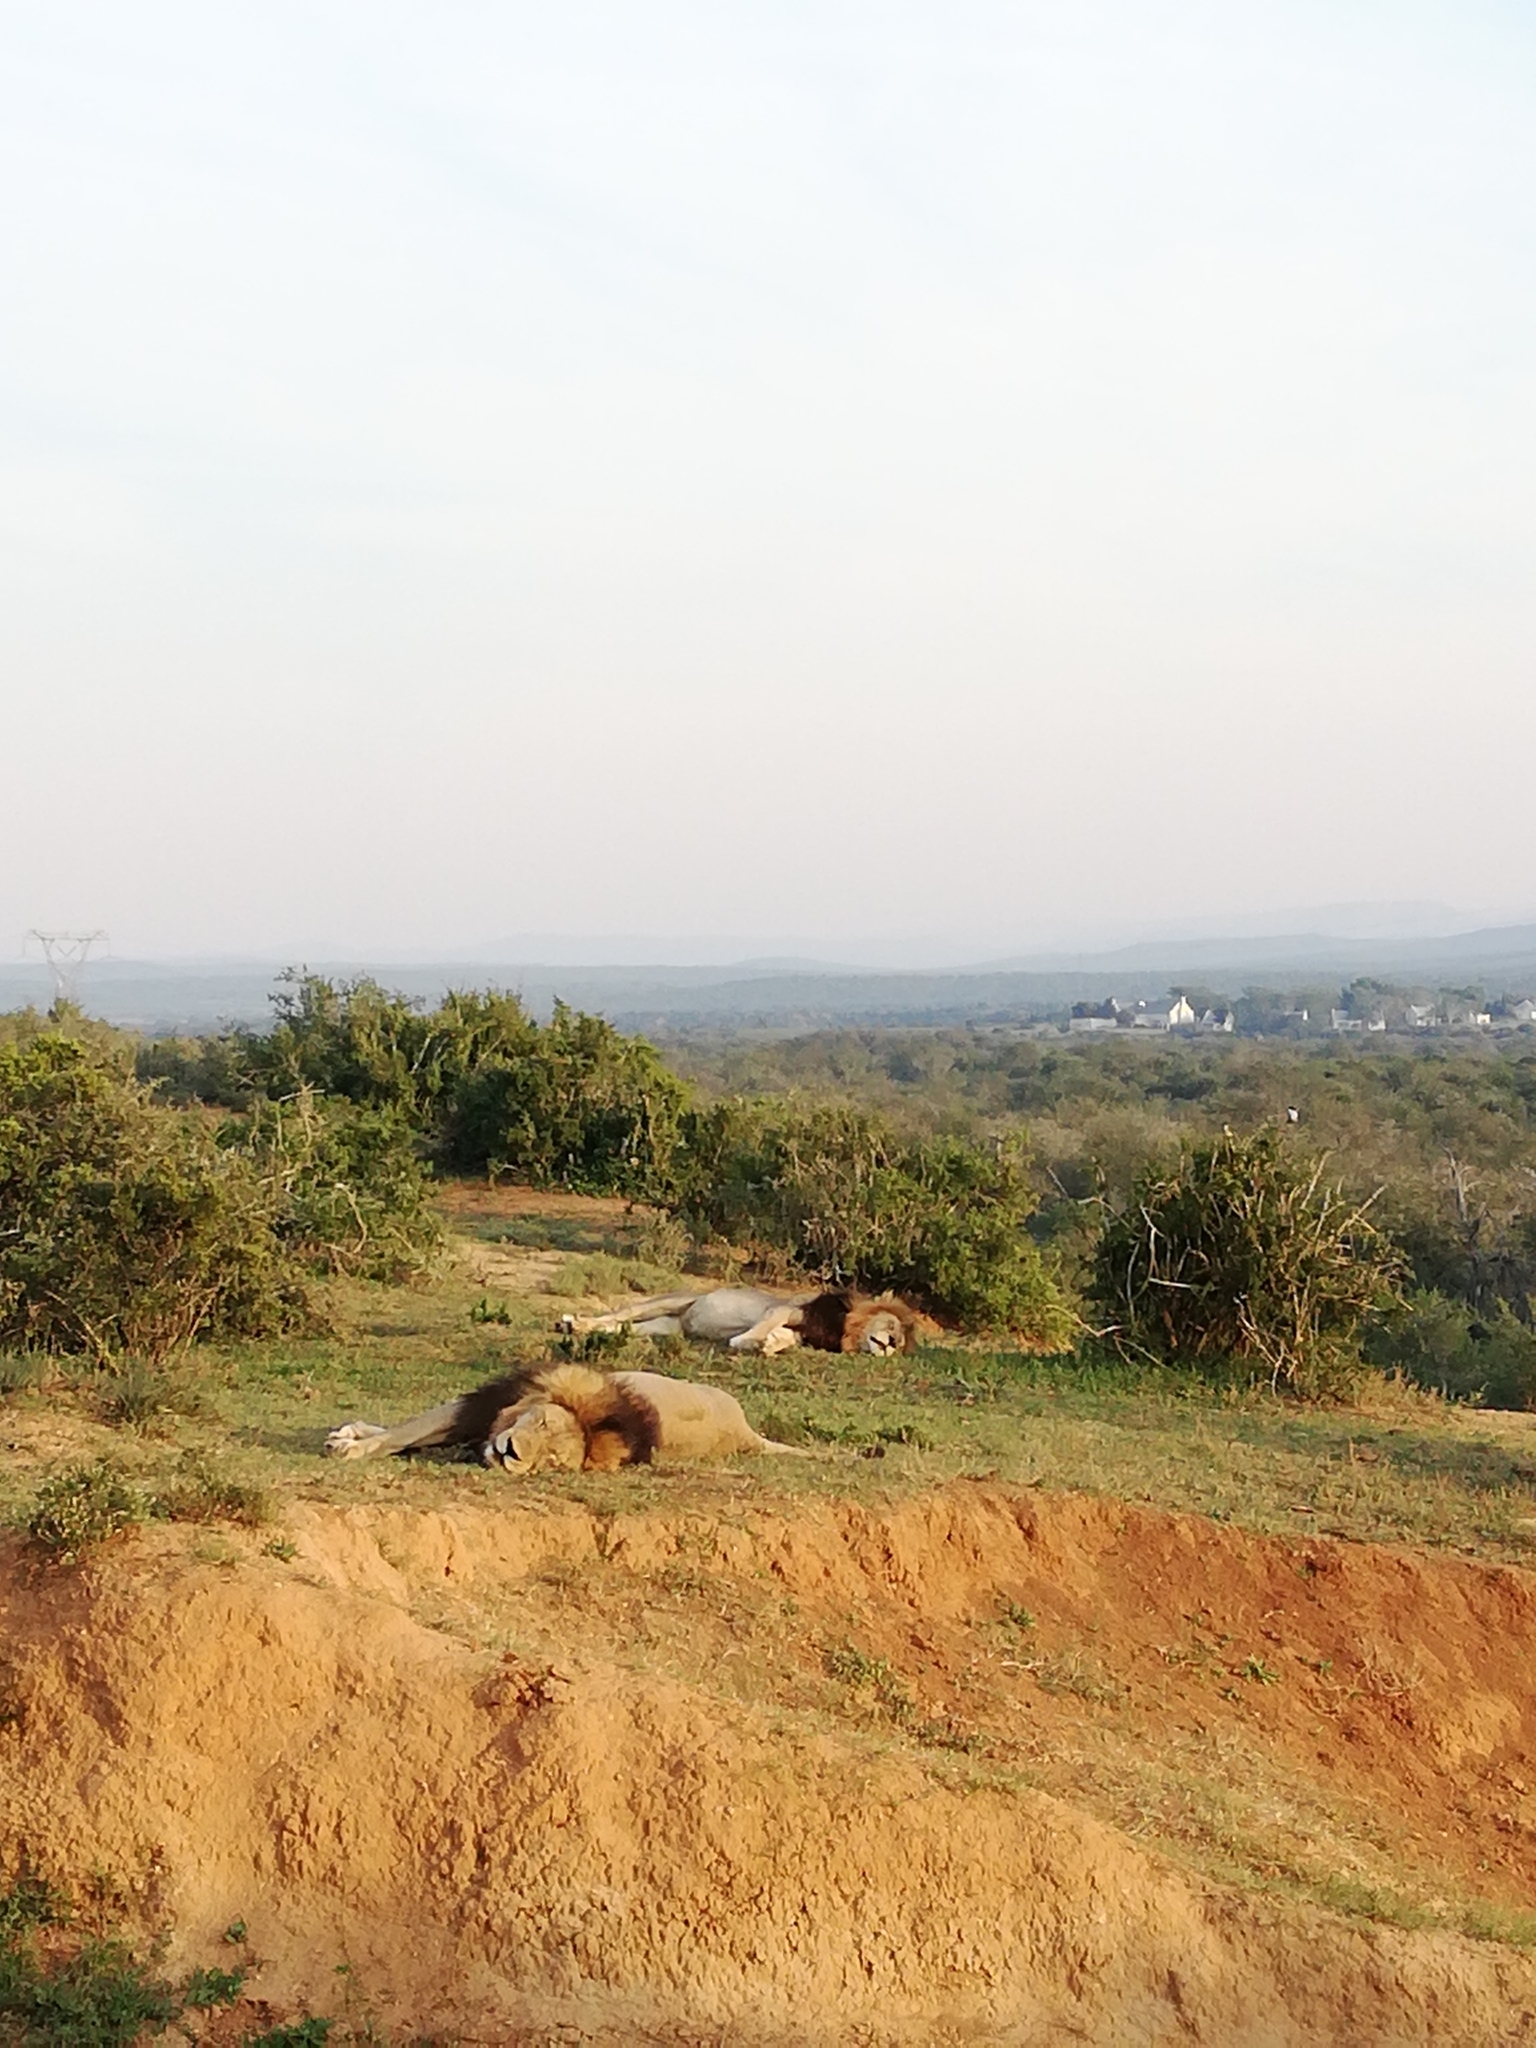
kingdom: Animalia
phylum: Chordata
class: Mammalia
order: Carnivora
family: Felidae
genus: Panthera
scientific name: Panthera leo
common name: Lion
